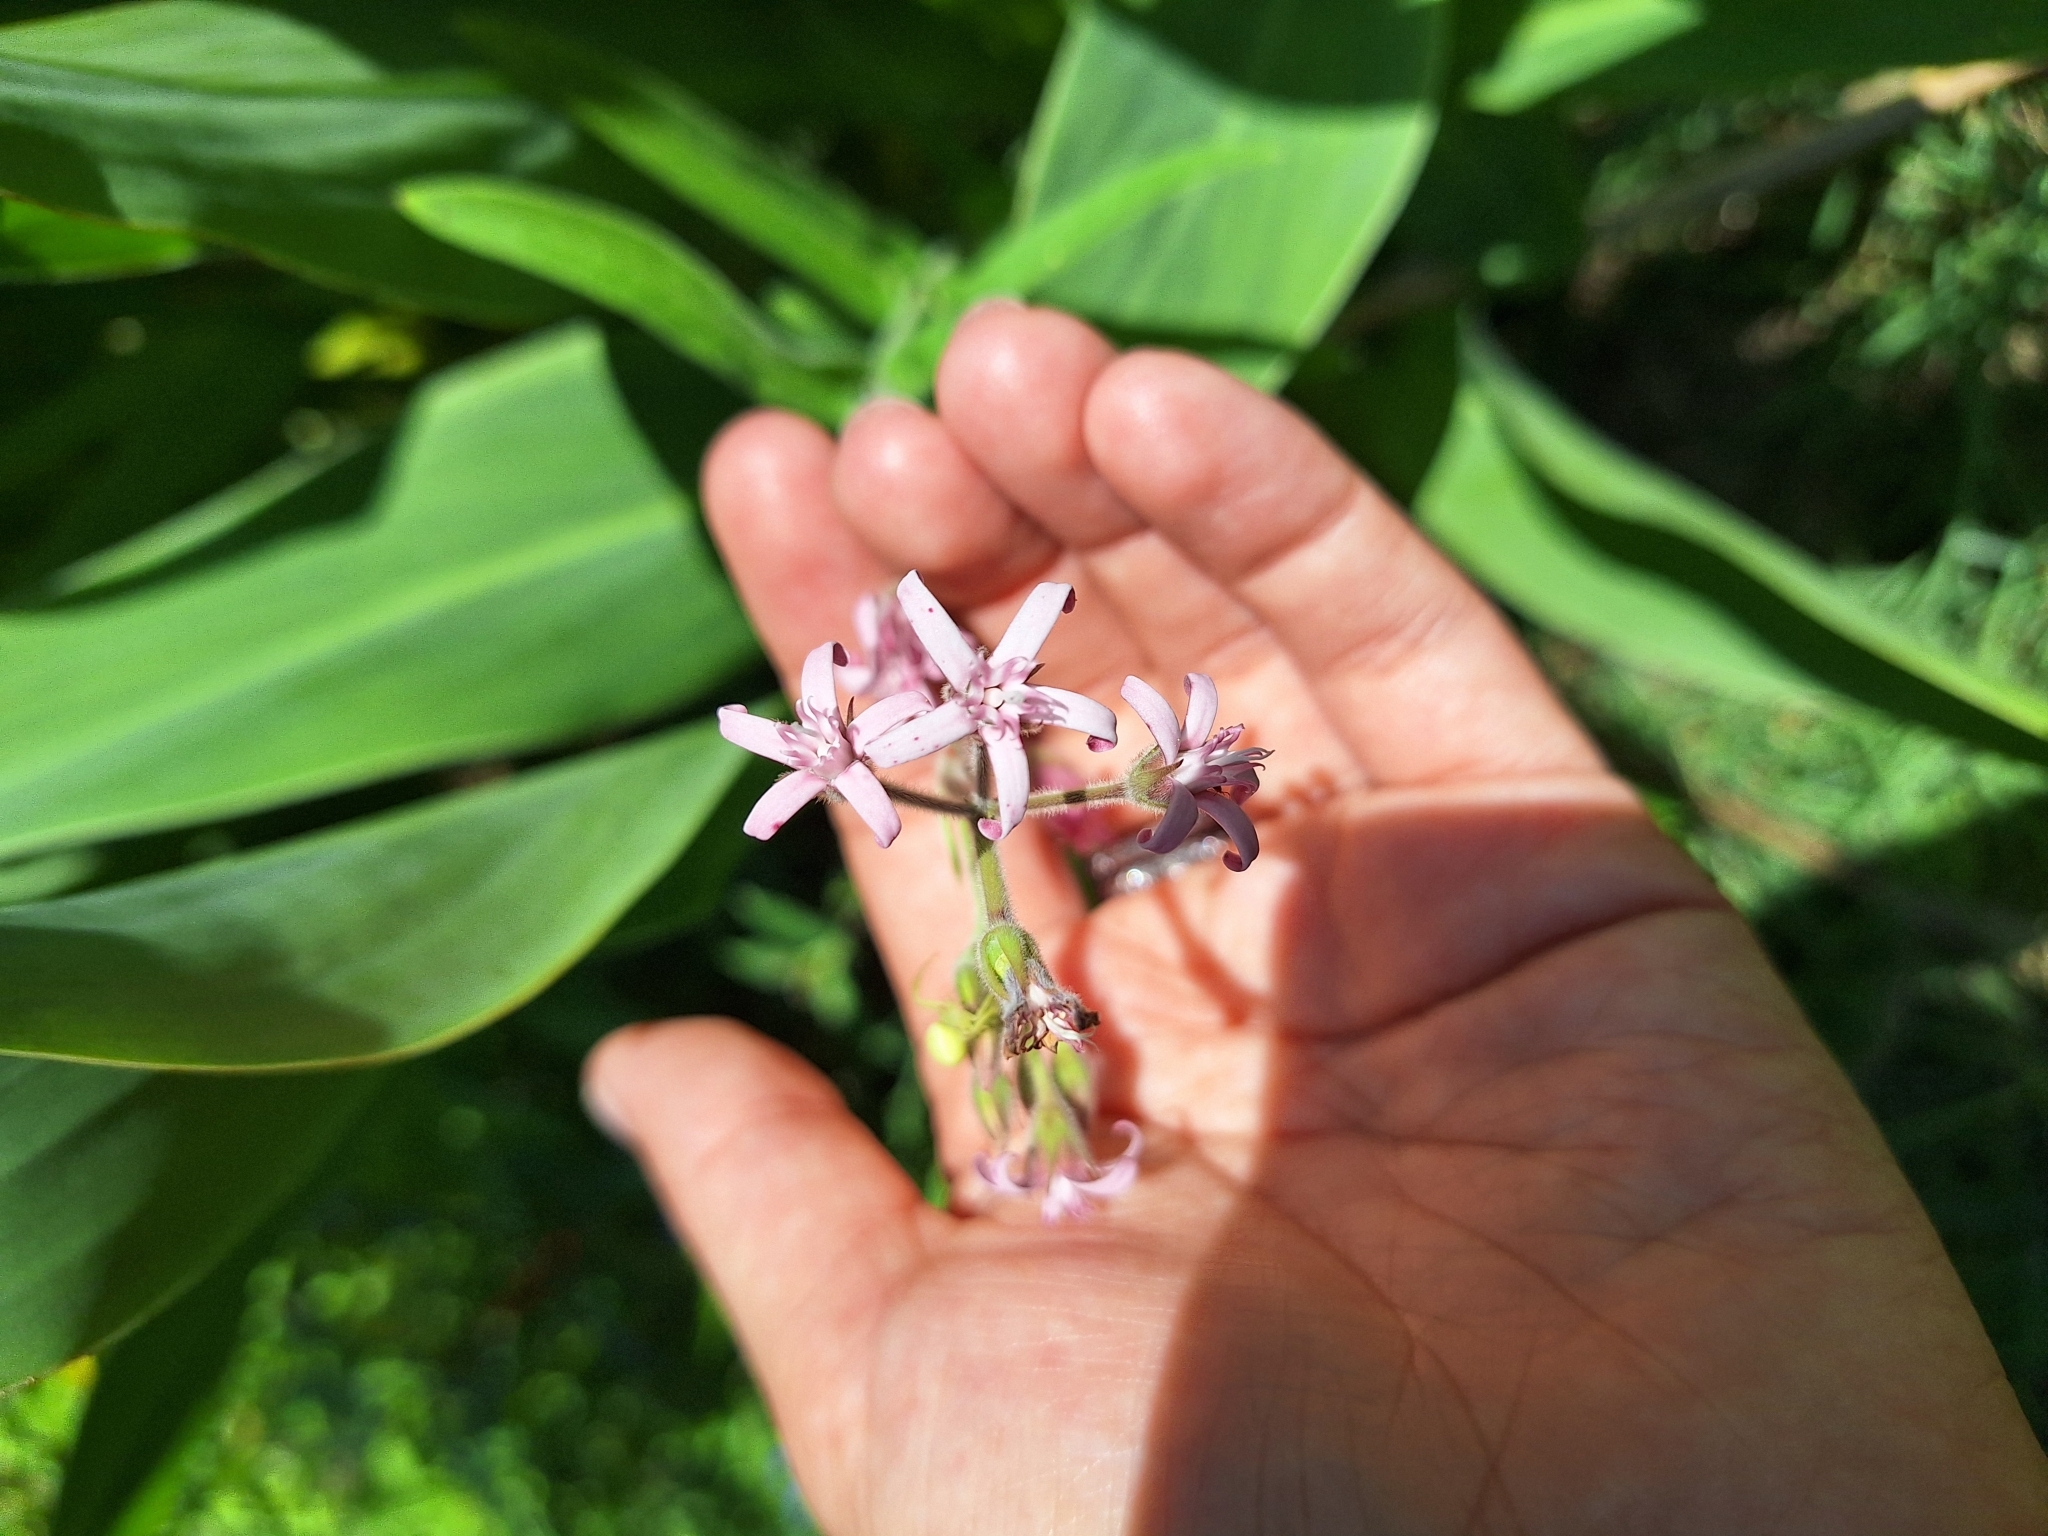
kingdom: Plantae
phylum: Tracheophyta
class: Magnoliopsida
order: Gentianales
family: Apocynaceae
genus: Oxypetalum
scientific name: Oxypetalum solanoides
